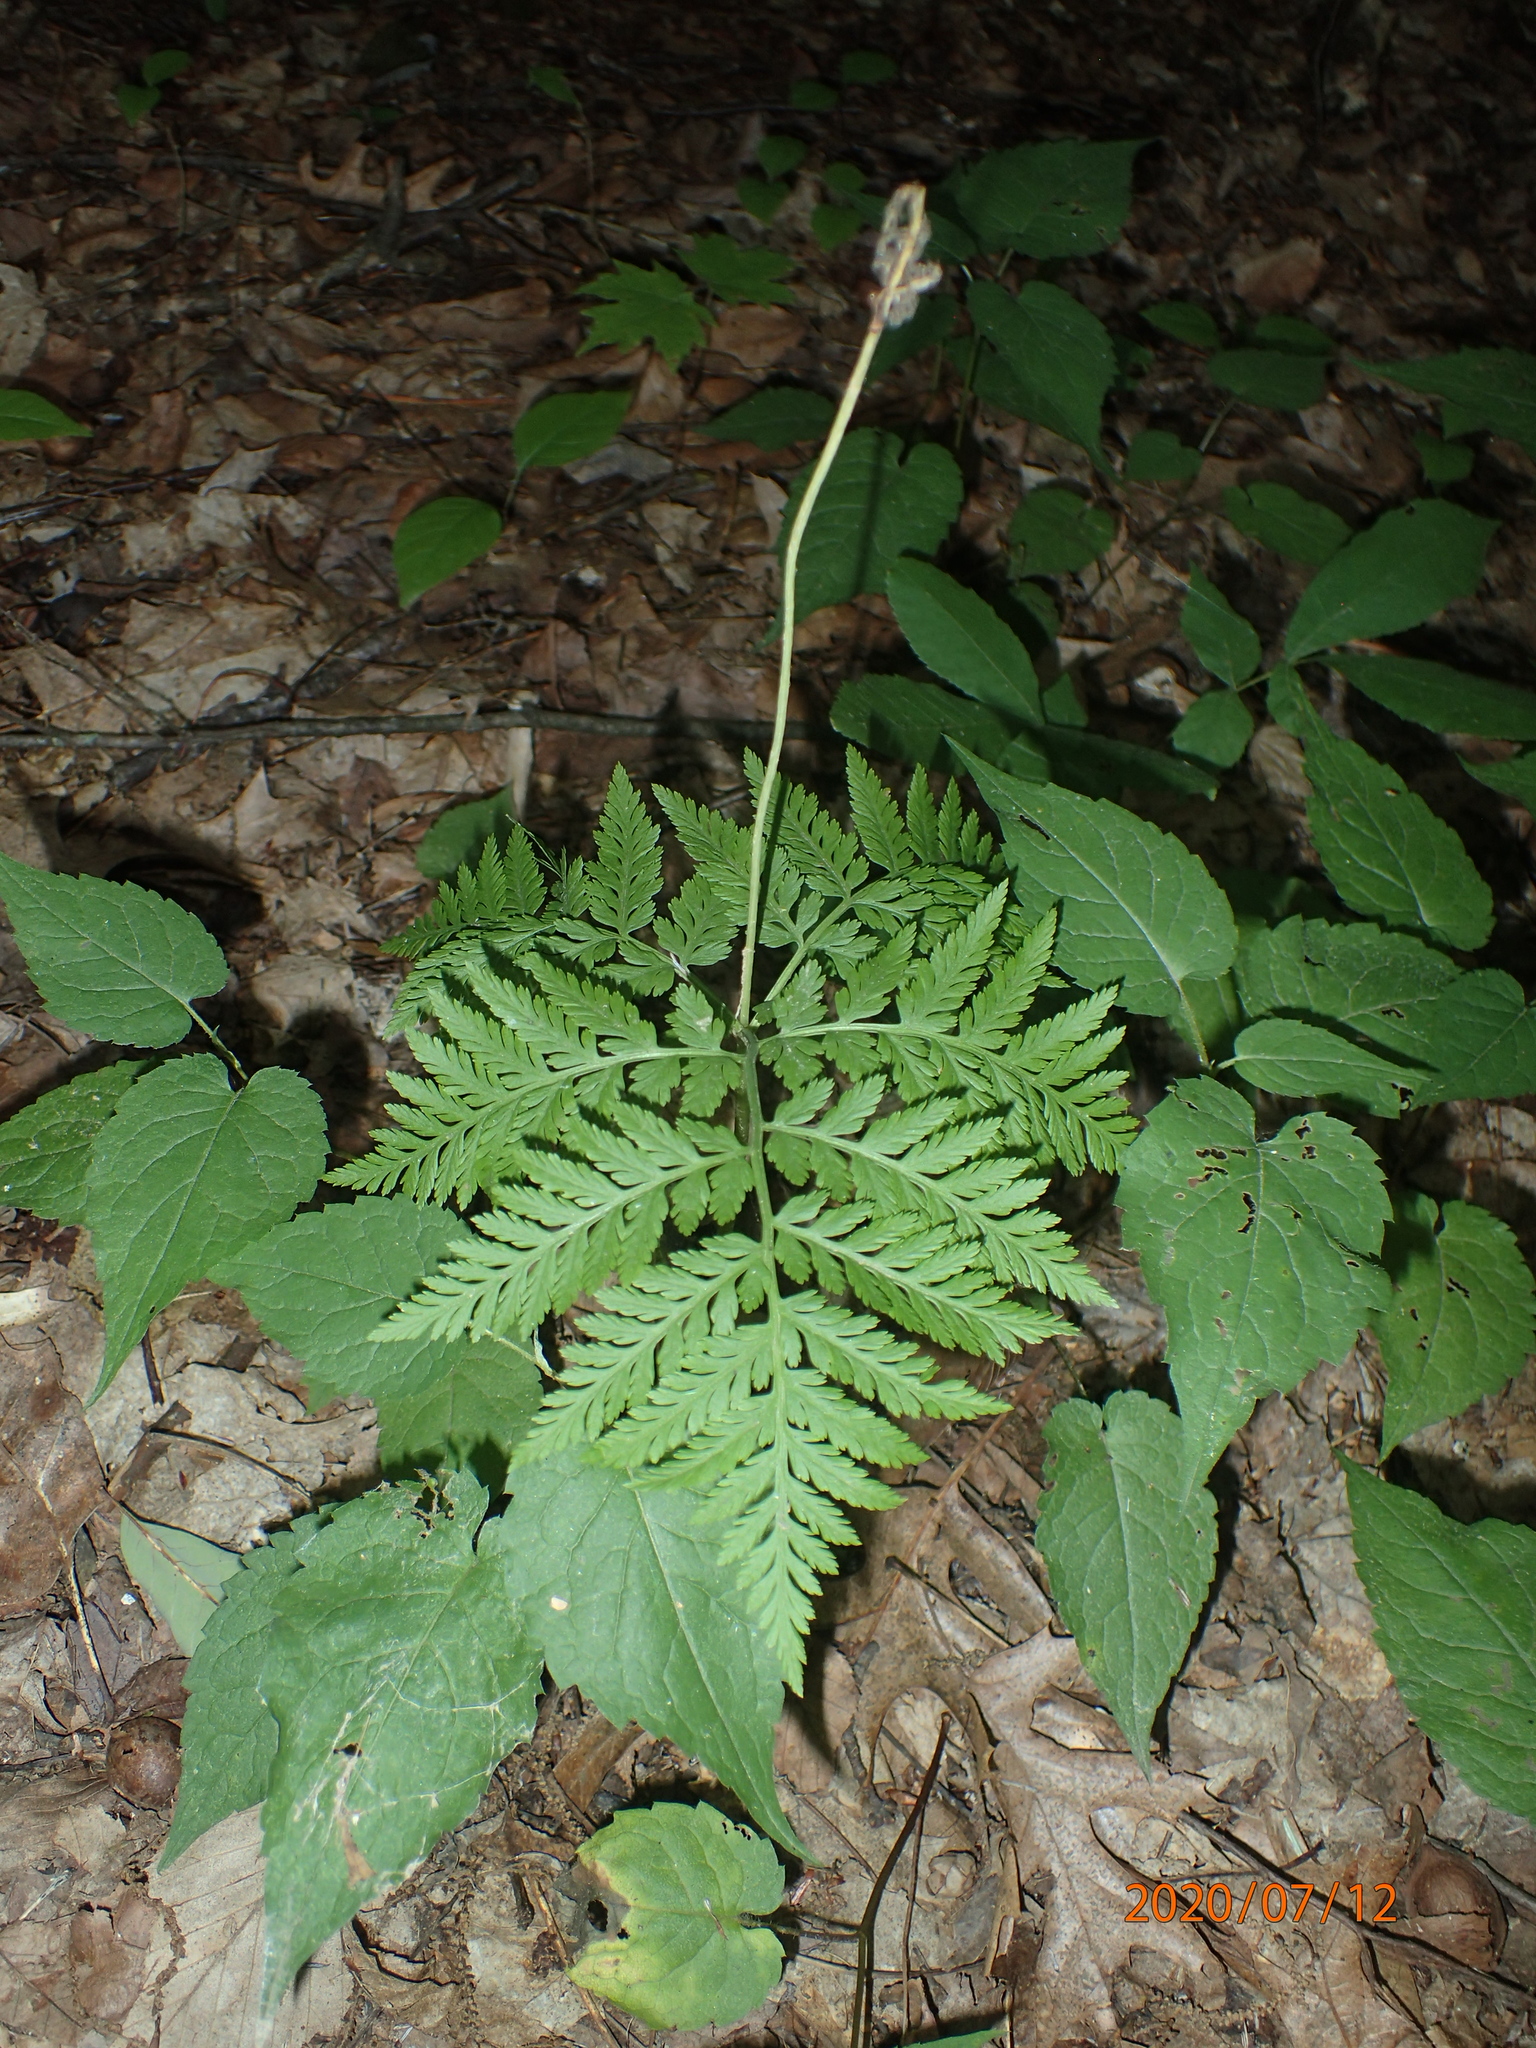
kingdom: Plantae
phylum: Tracheophyta
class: Polypodiopsida
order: Ophioglossales
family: Ophioglossaceae
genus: Botrypus
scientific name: Botrypus virginianus
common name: Common grapefern
